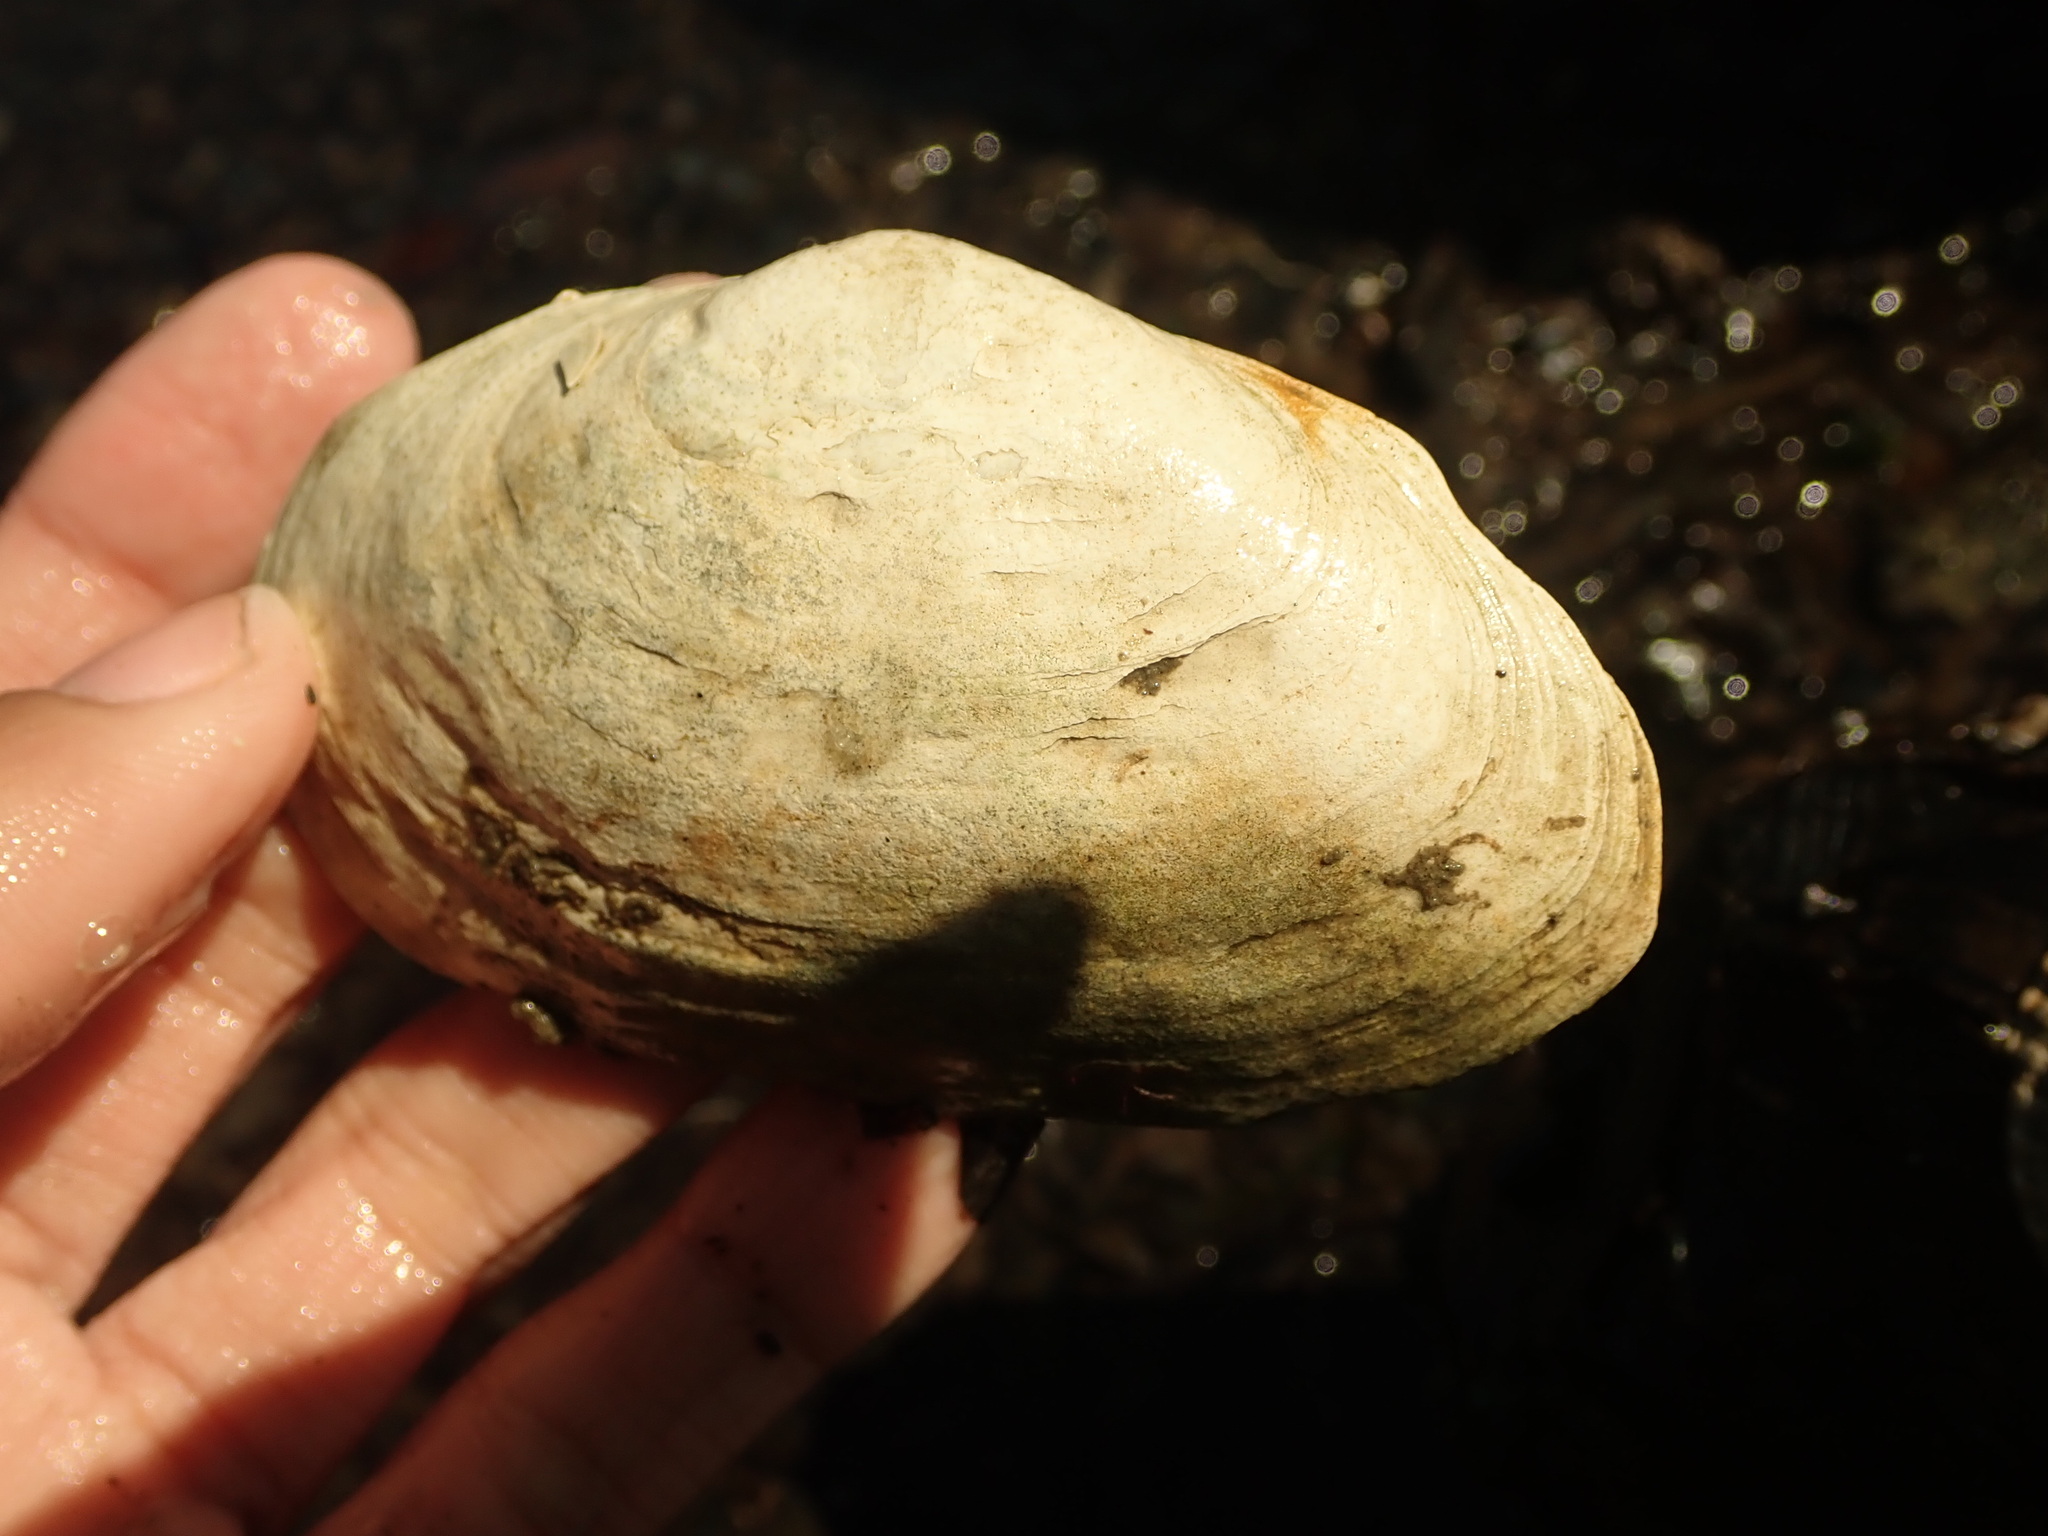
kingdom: Animalia
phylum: Mollusca
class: Bivalvia
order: Myida
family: Myidae
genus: Mya
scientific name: Mya arenaria
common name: Soft-shelled clam
